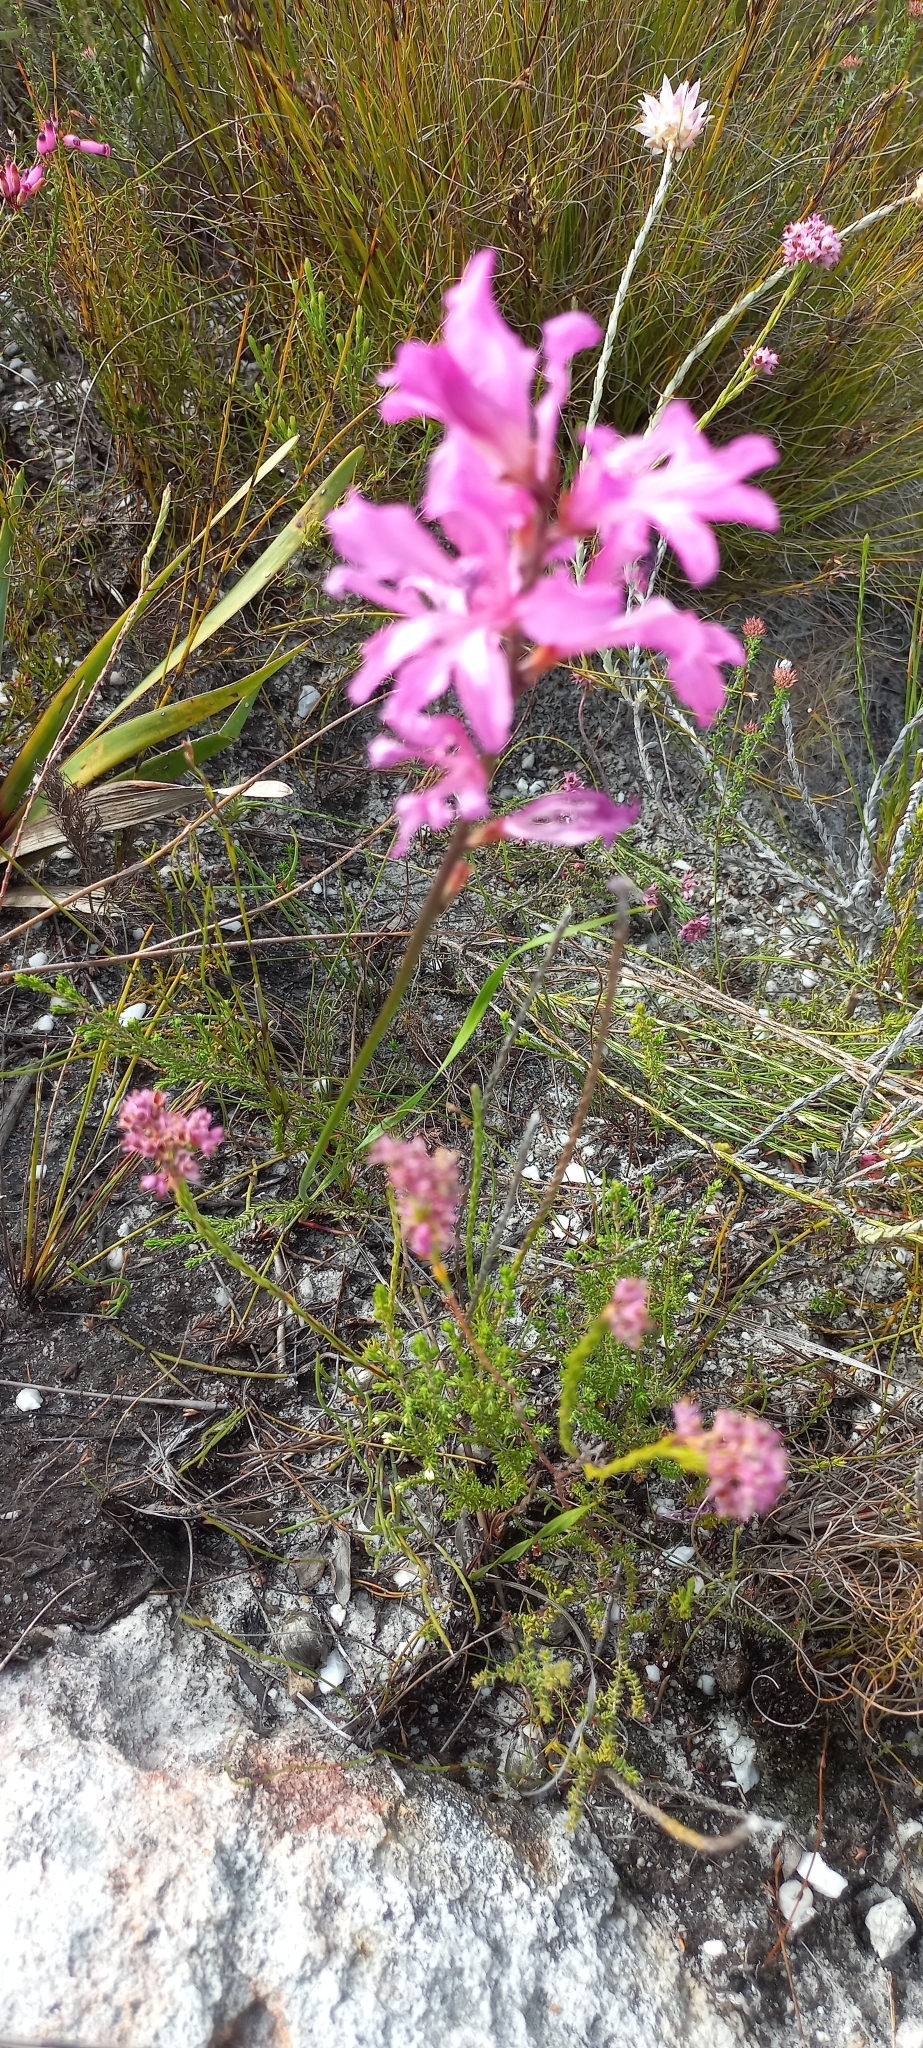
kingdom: Plantae
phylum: Tracheophyta
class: Liliopsida
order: Asparagales
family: Iridaceae
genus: Tritoniopsis
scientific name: Tritoniopsis lata
